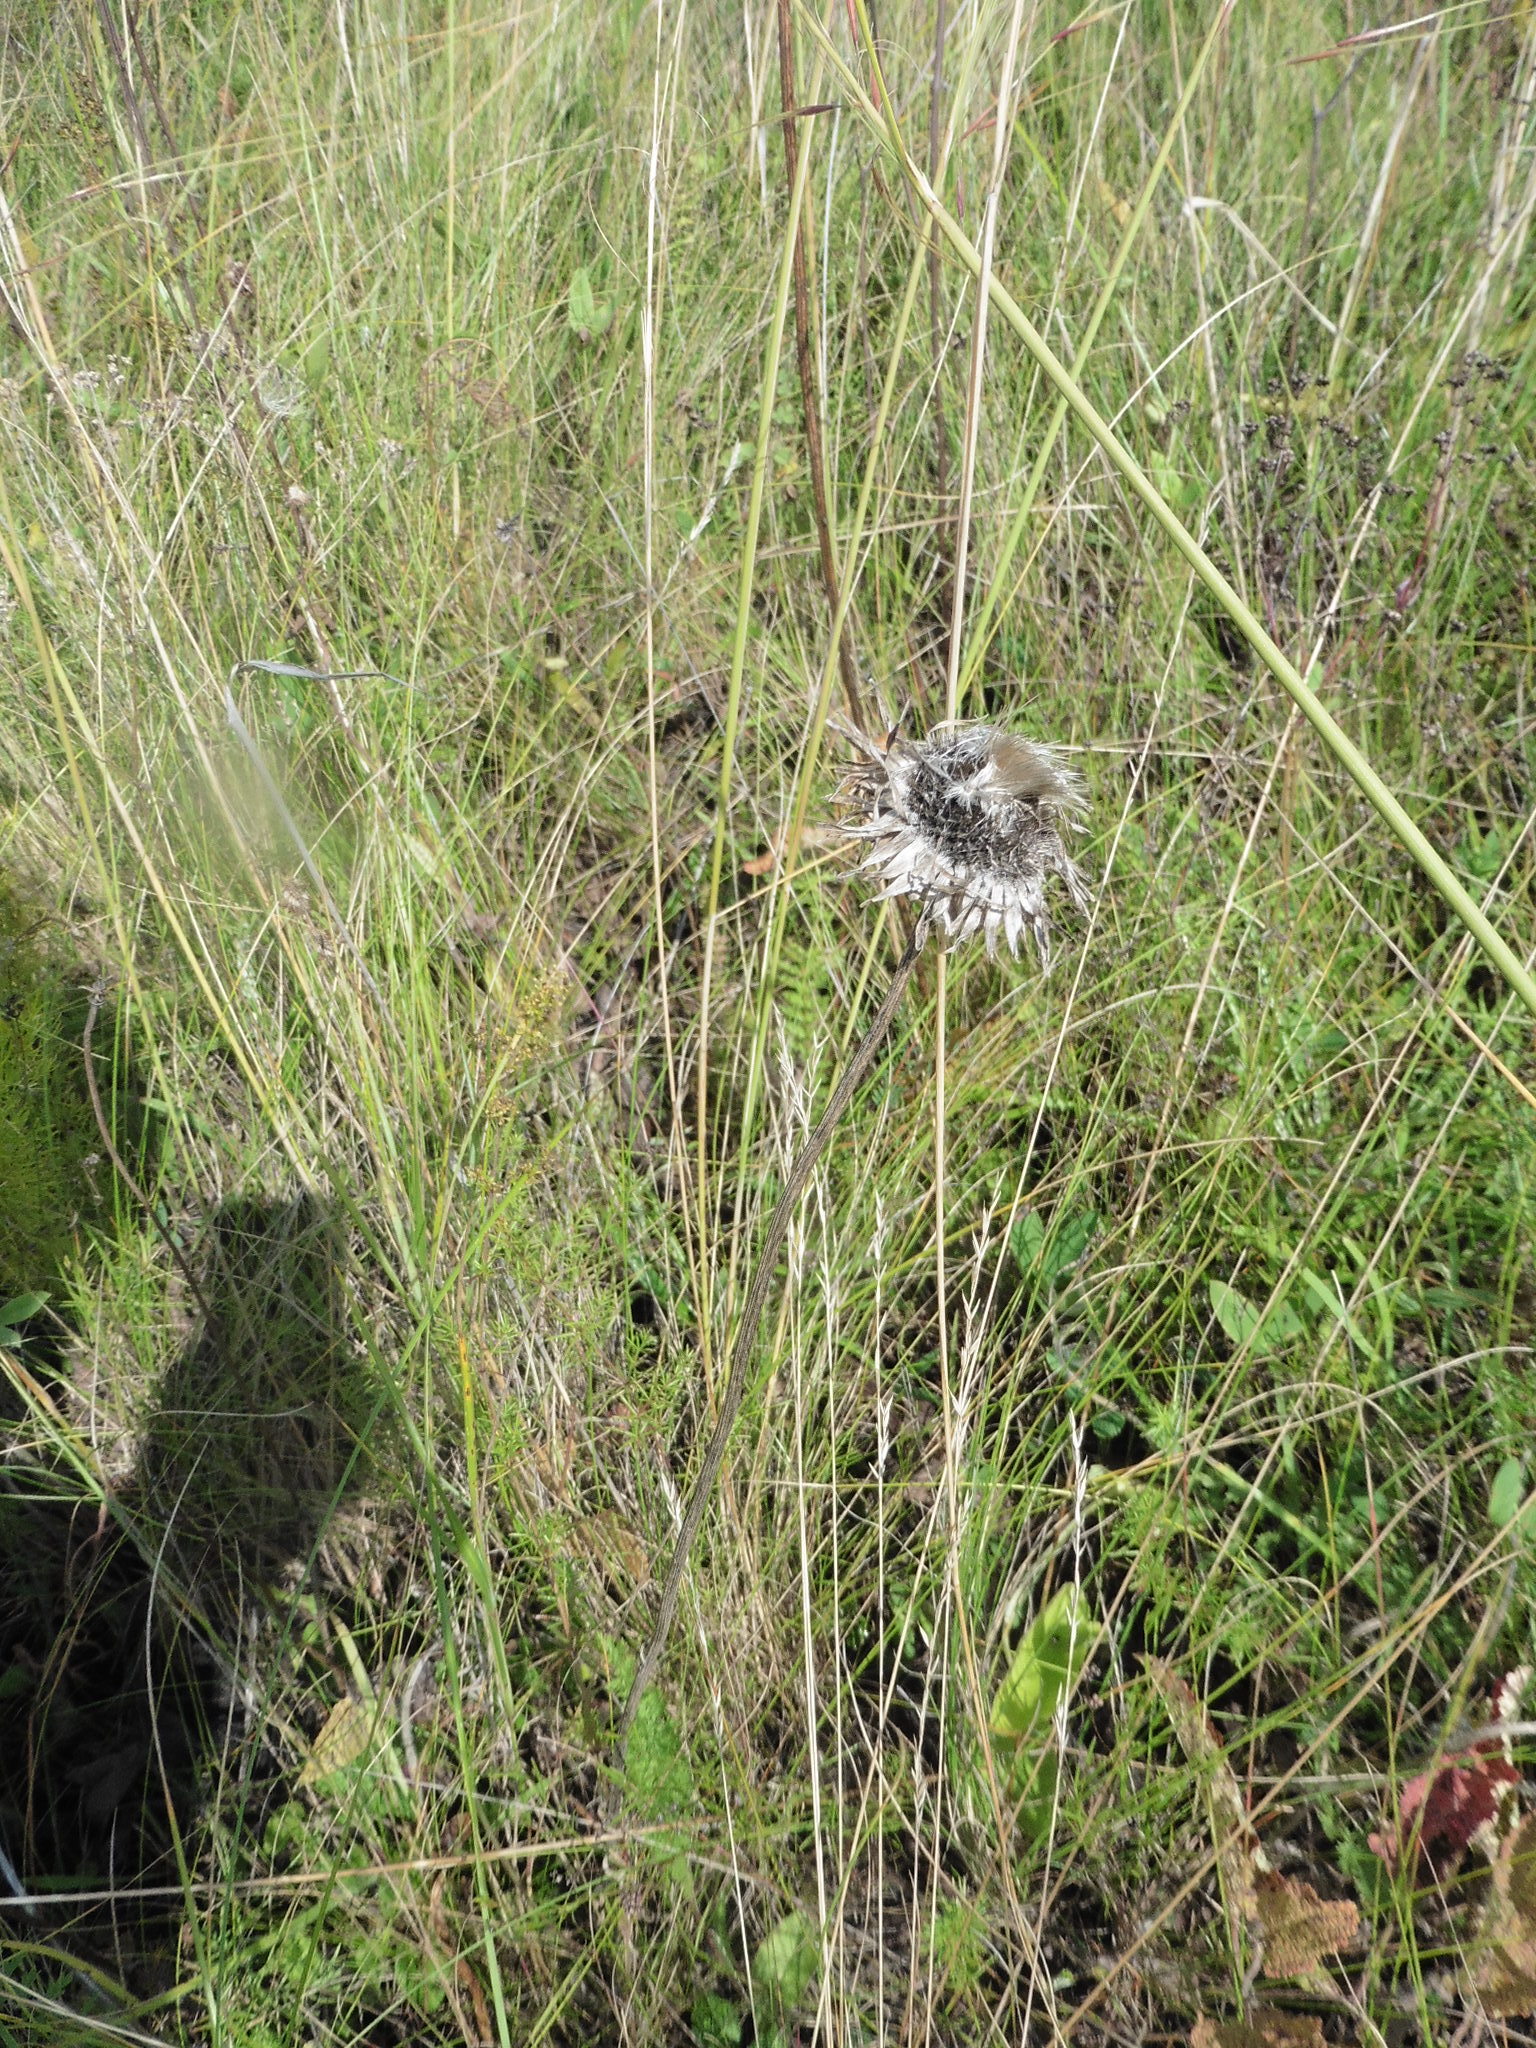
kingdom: Plantae
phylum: Tracheophyta
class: Magnoliopsida
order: Asterales
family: Asteraceae
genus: Jurinea
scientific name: Jurinea ledebourii
